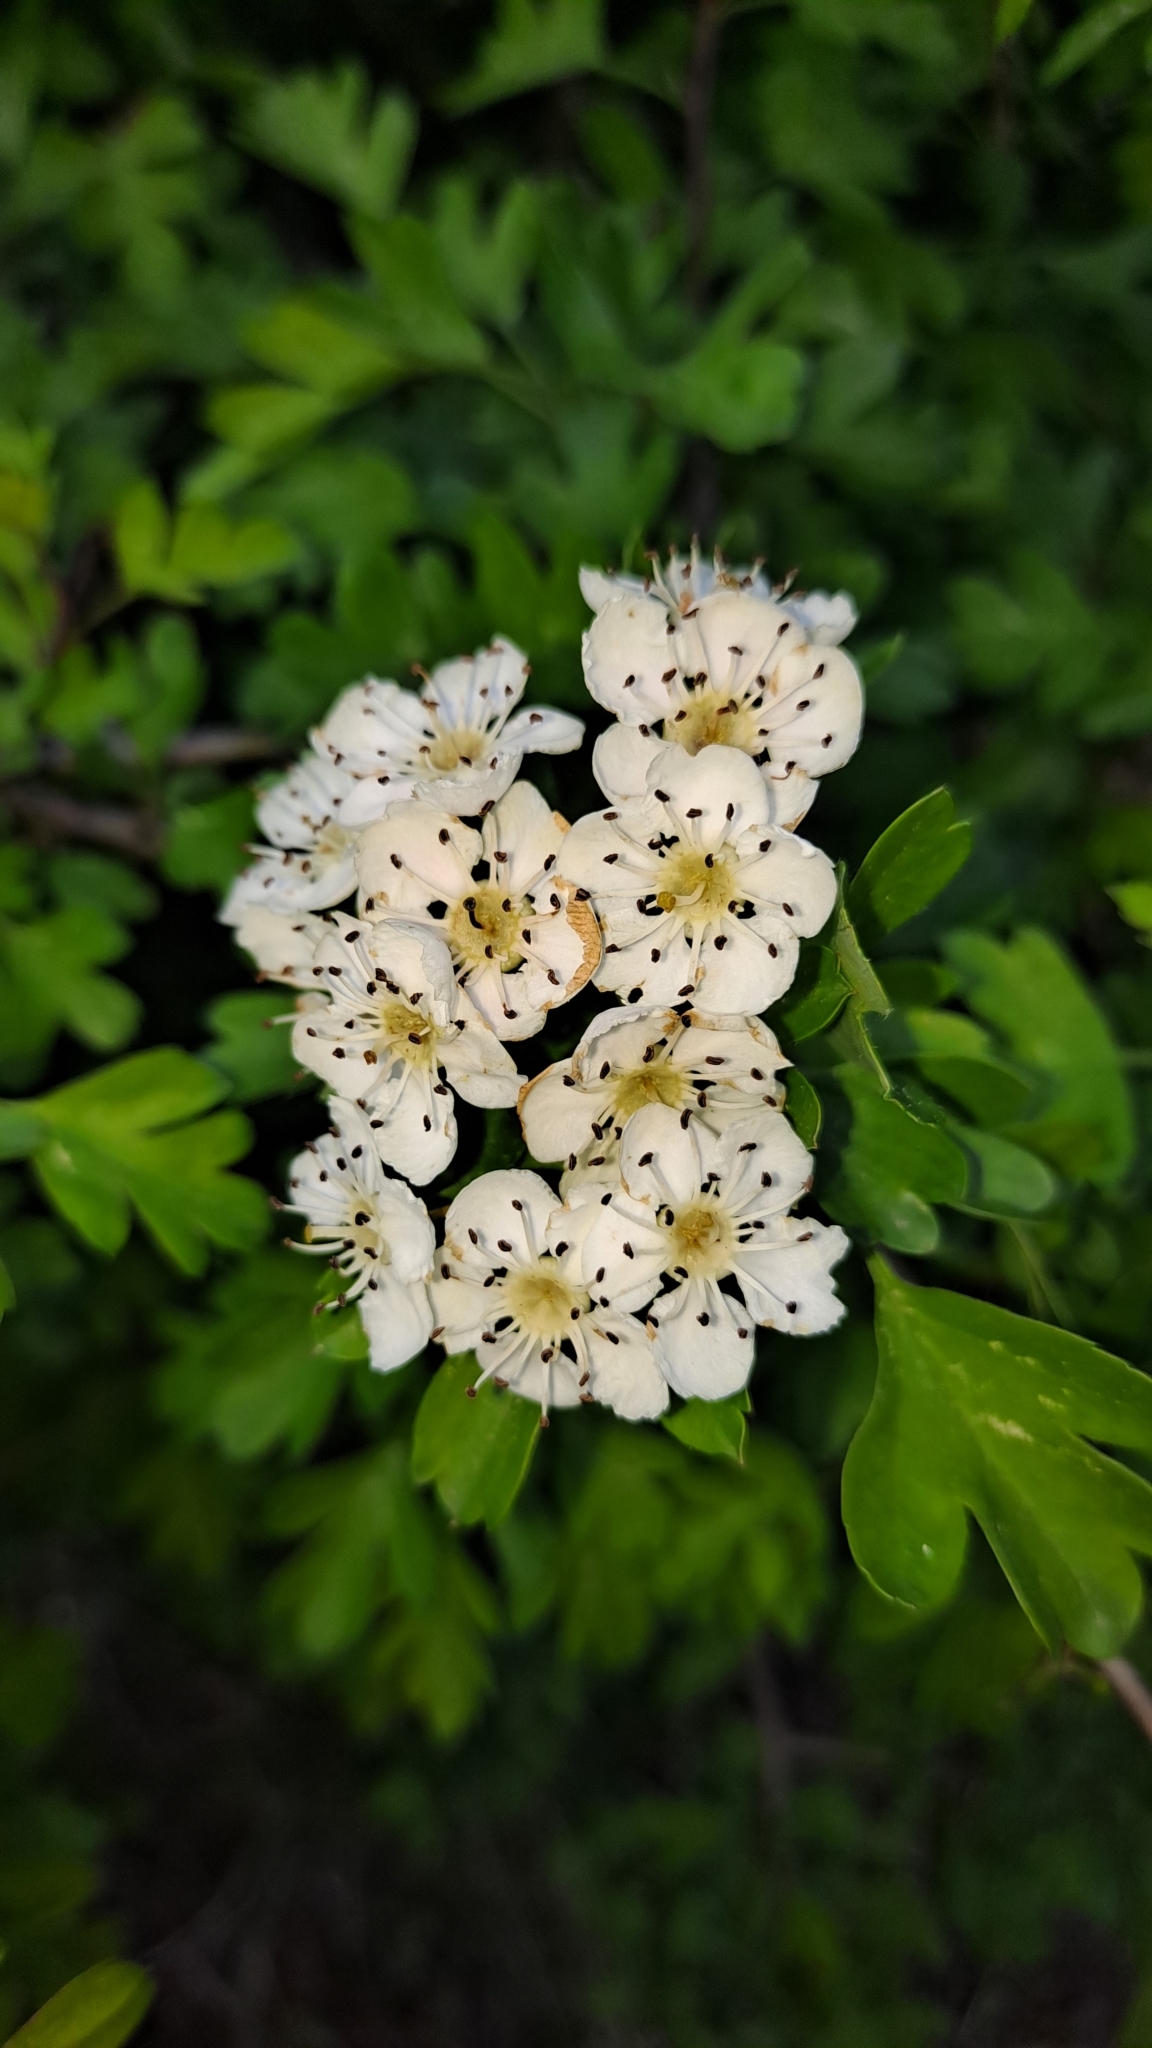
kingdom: Plantae
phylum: Tracheophyta
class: Magnoliopsida
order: Rosales
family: Rosaceae
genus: Crataegus
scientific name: Crataegus monogyna
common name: Hawthorn
